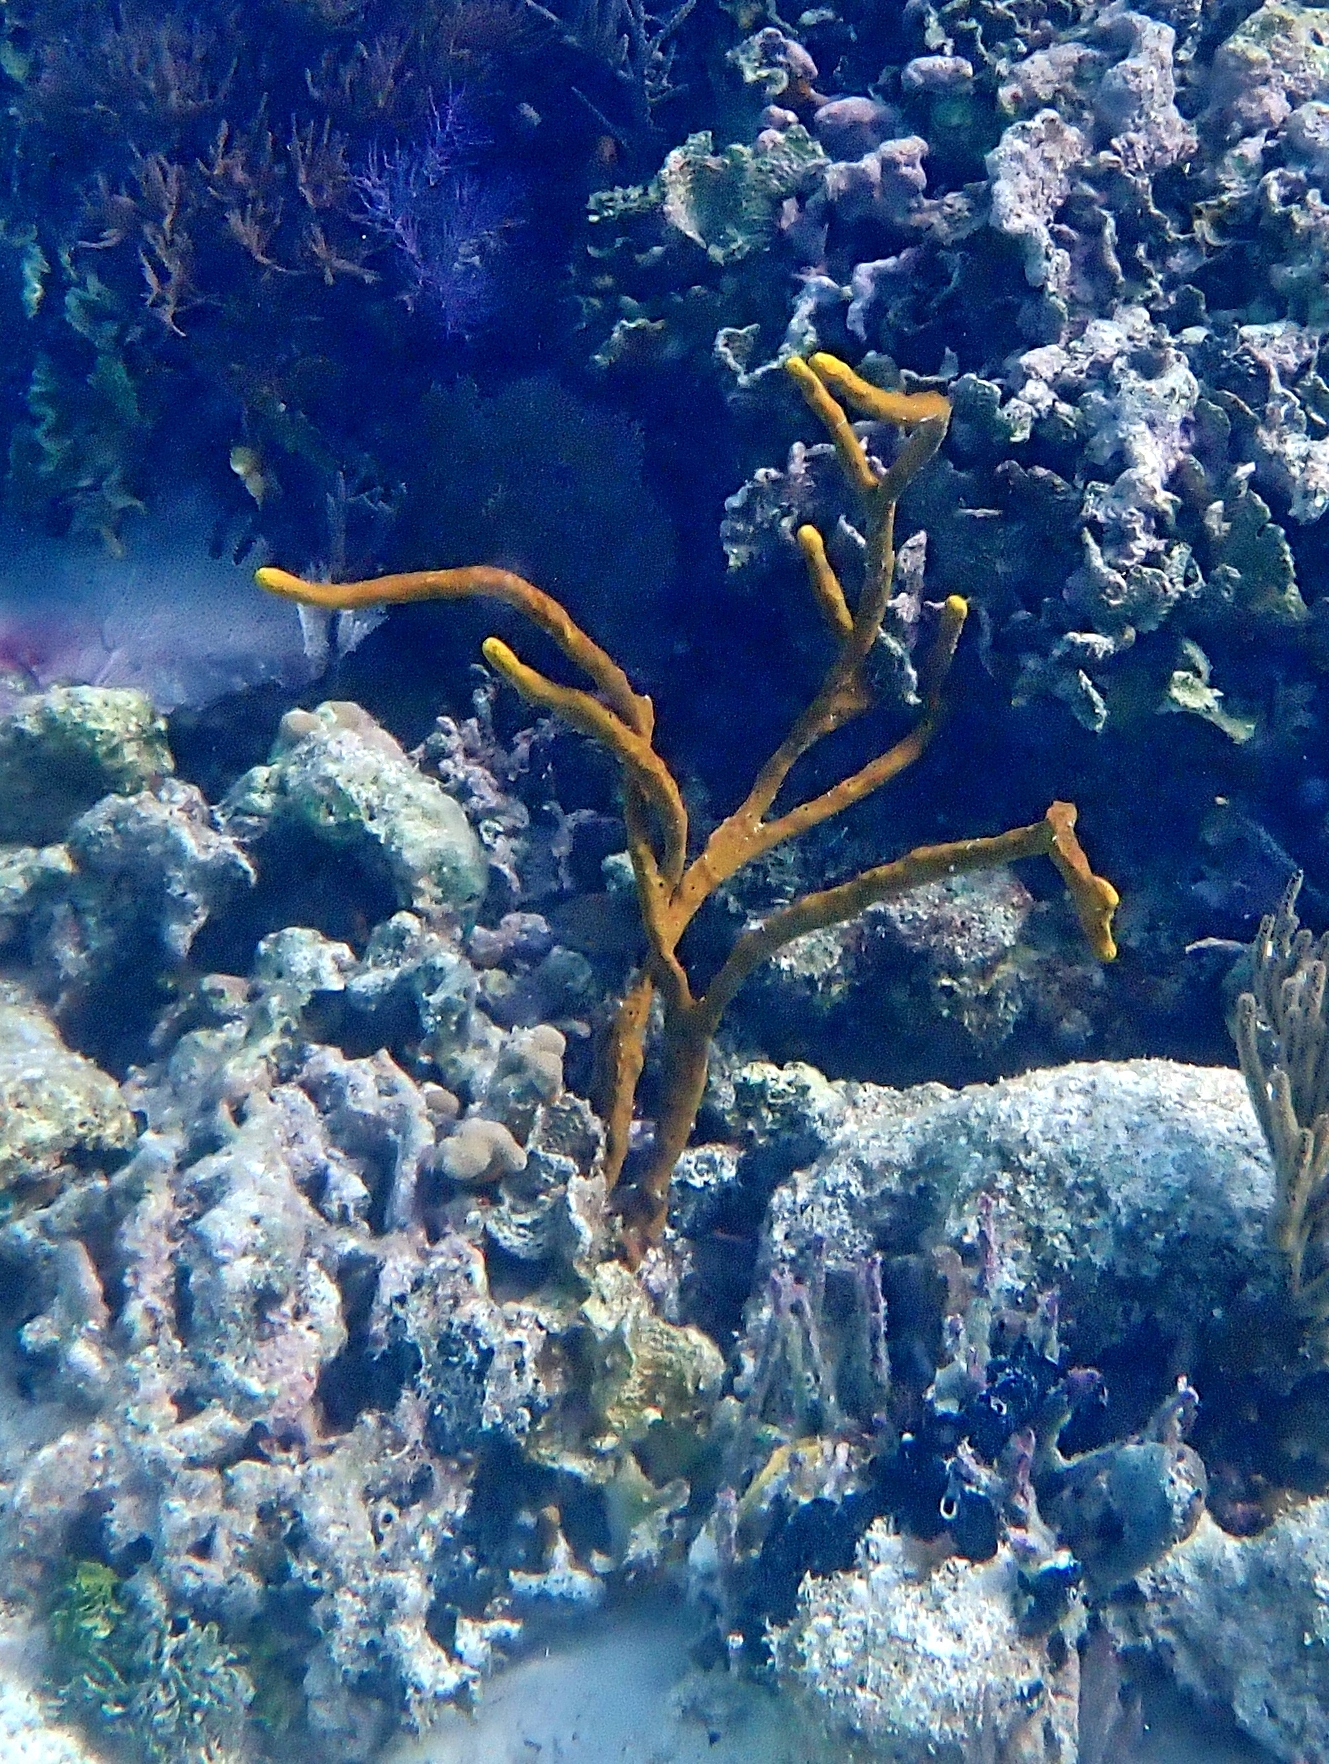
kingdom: Animalia
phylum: Porifera
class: Demospongiae
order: Verongiida
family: Aplysinidae
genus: Aplysina
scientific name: Aplysina fulva
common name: Scattered pore rope sponge
